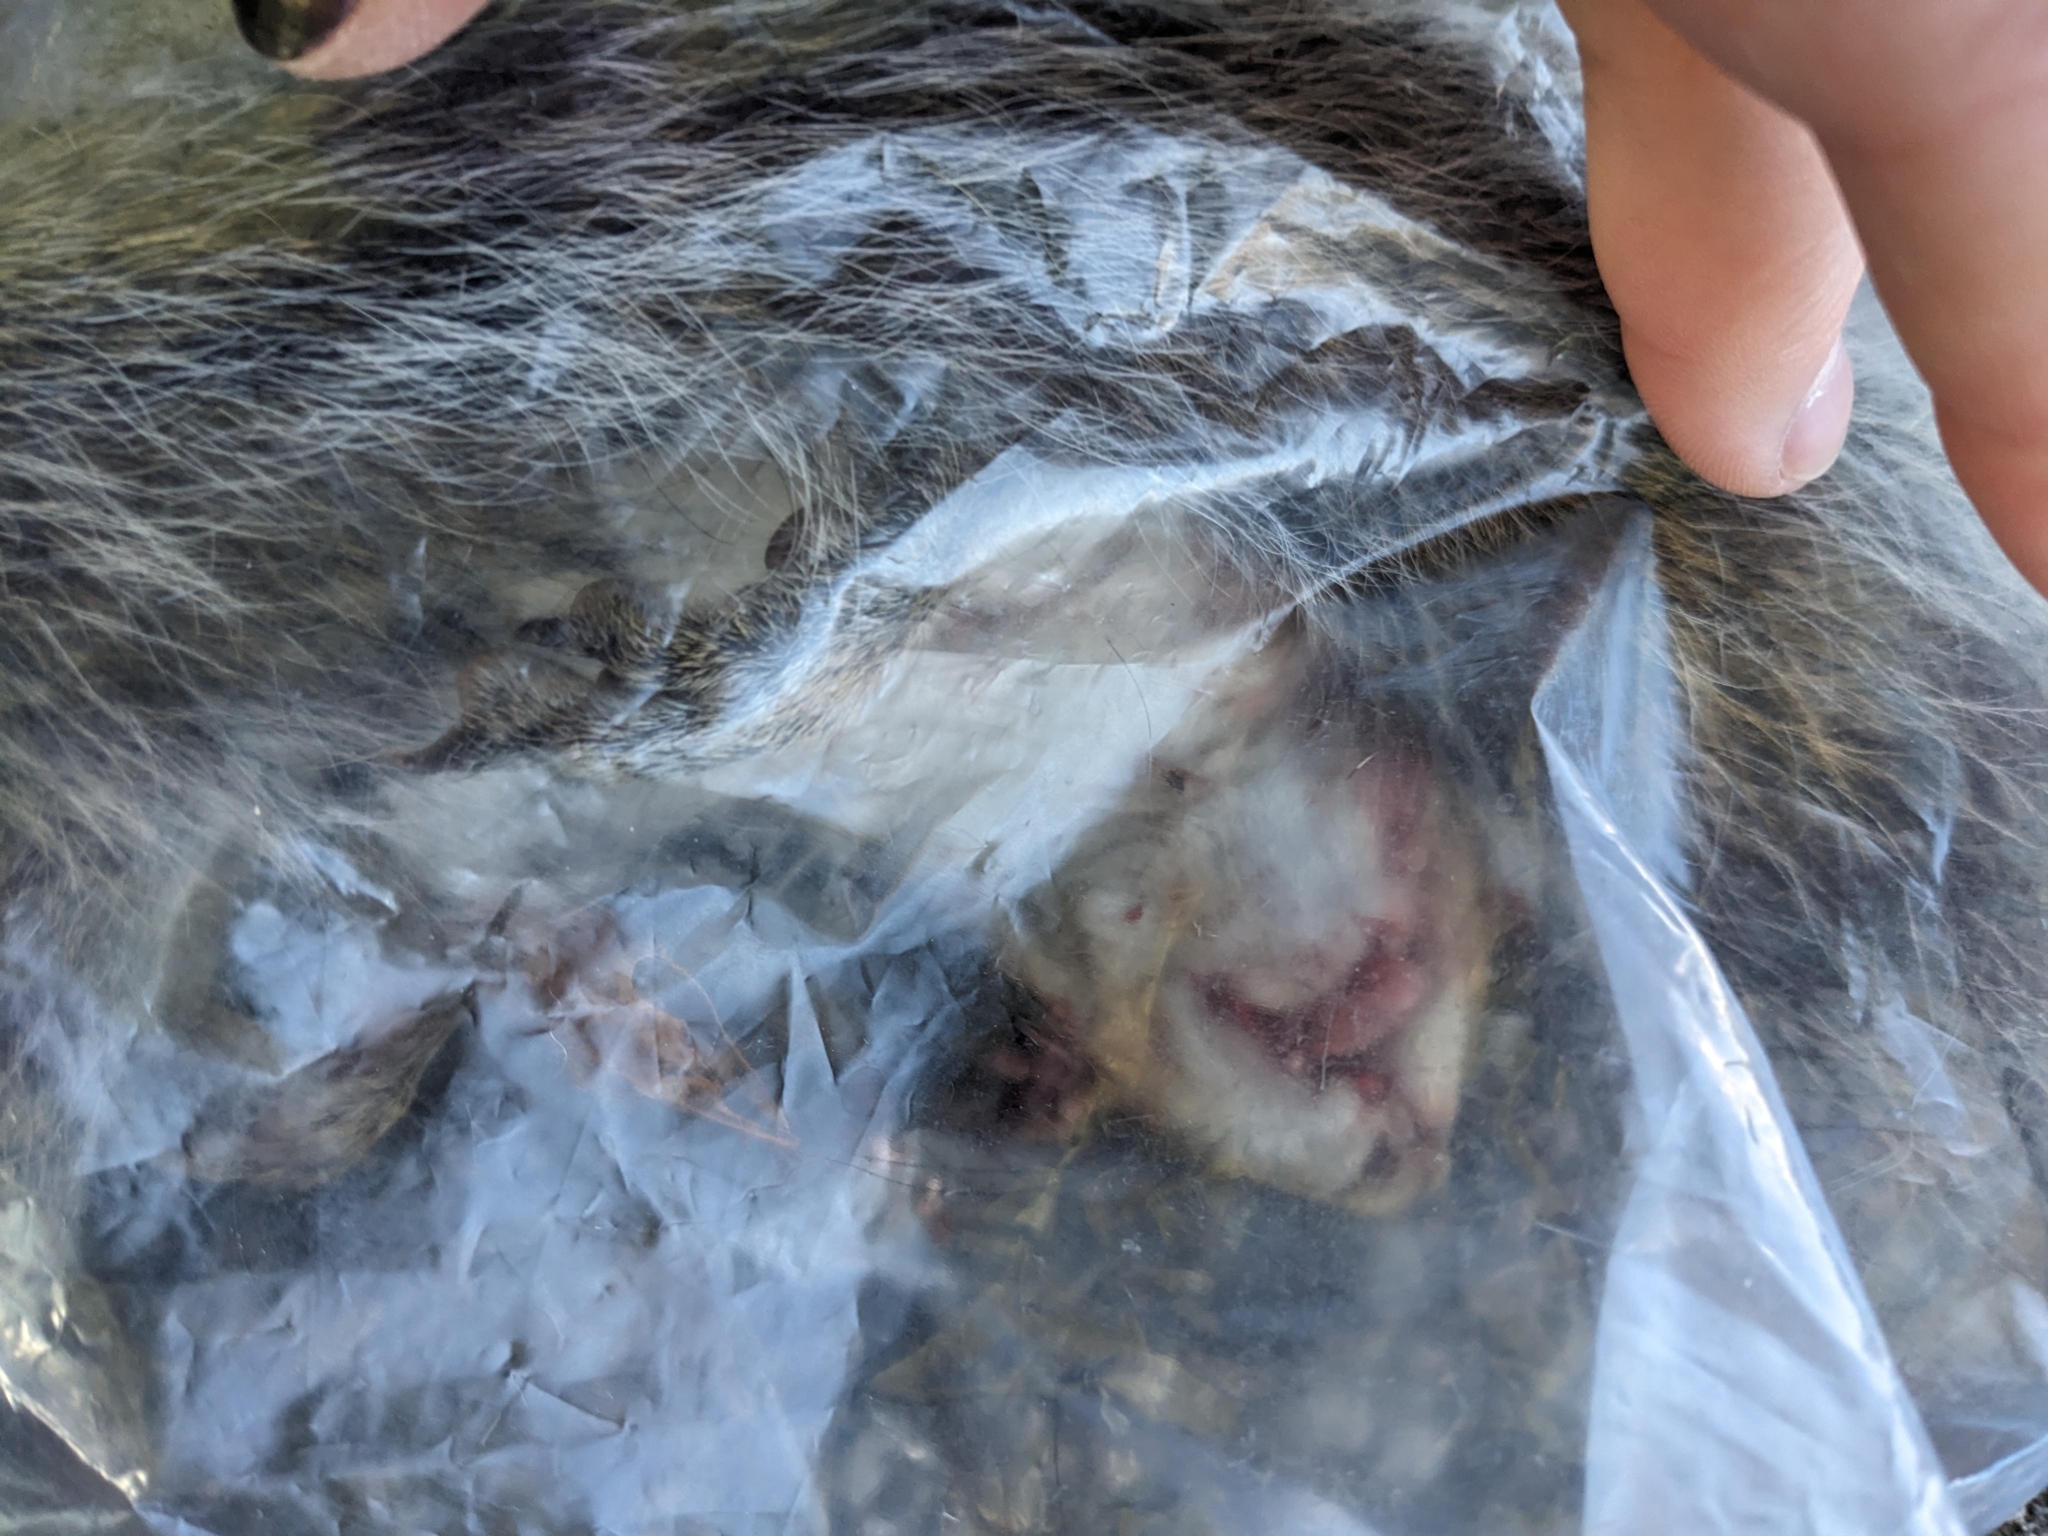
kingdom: Animalia
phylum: Chordata
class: Mammalia
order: Rodentia
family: Sciuridae
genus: Sciurus
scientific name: Sciurus carolinensis
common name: Eastern gray squirrel
